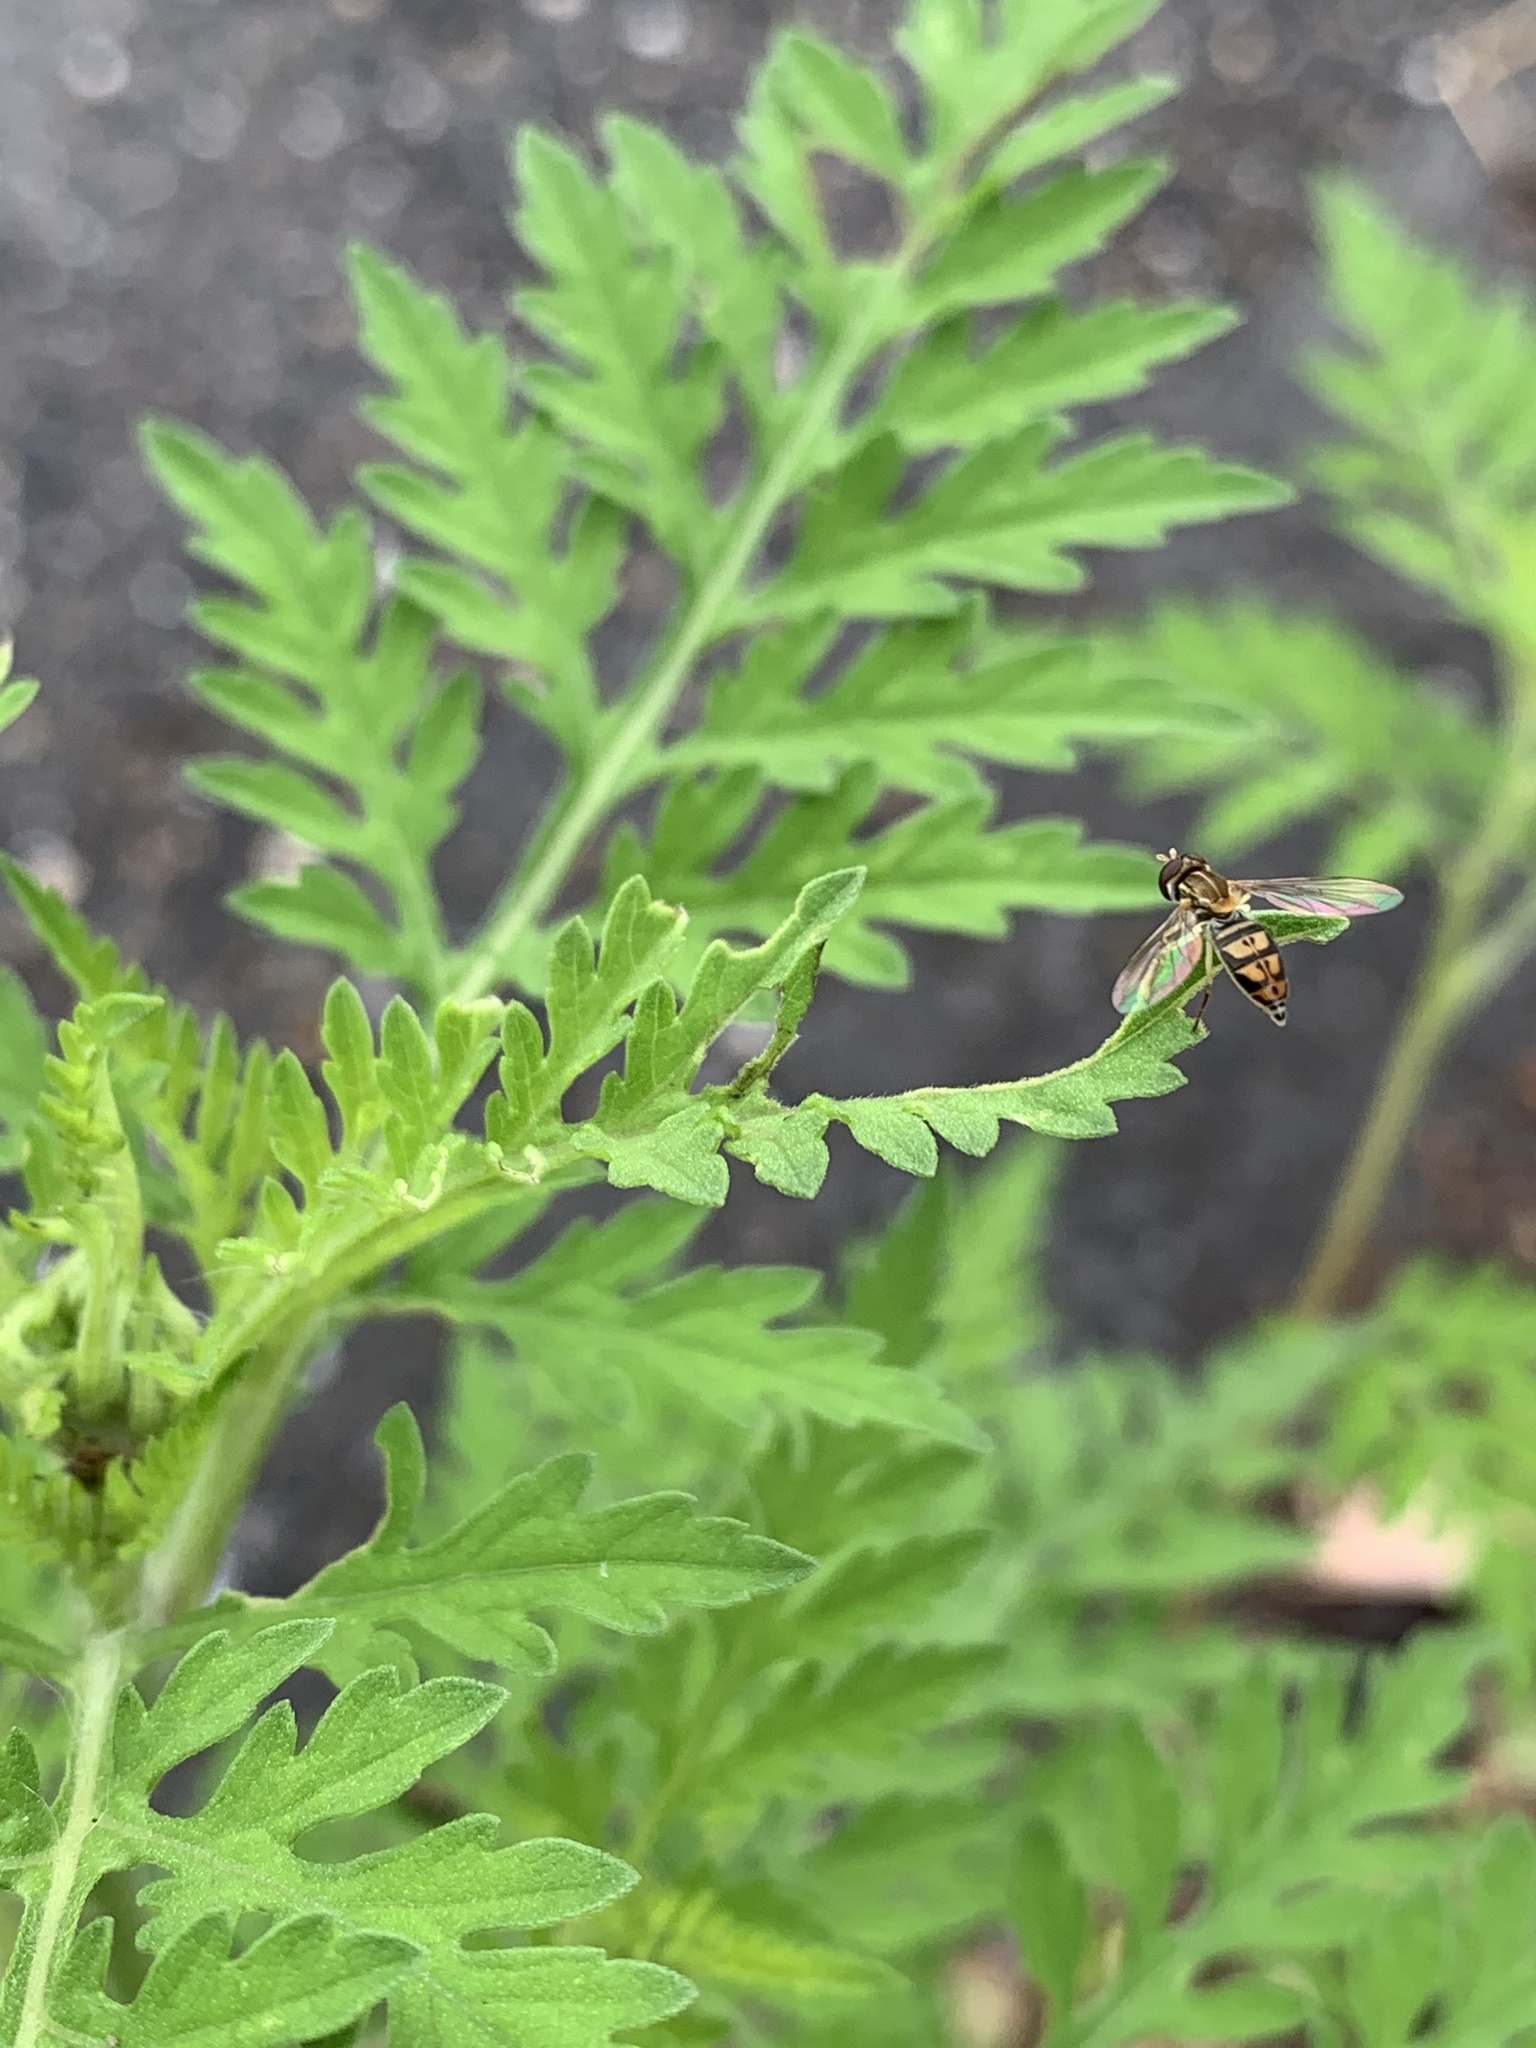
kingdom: Animalia
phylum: Arthropoda
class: Insecta
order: Diptera
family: Syrphidae
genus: Toxomerus
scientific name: Toxomerus marginatus
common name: Syrphid fly
